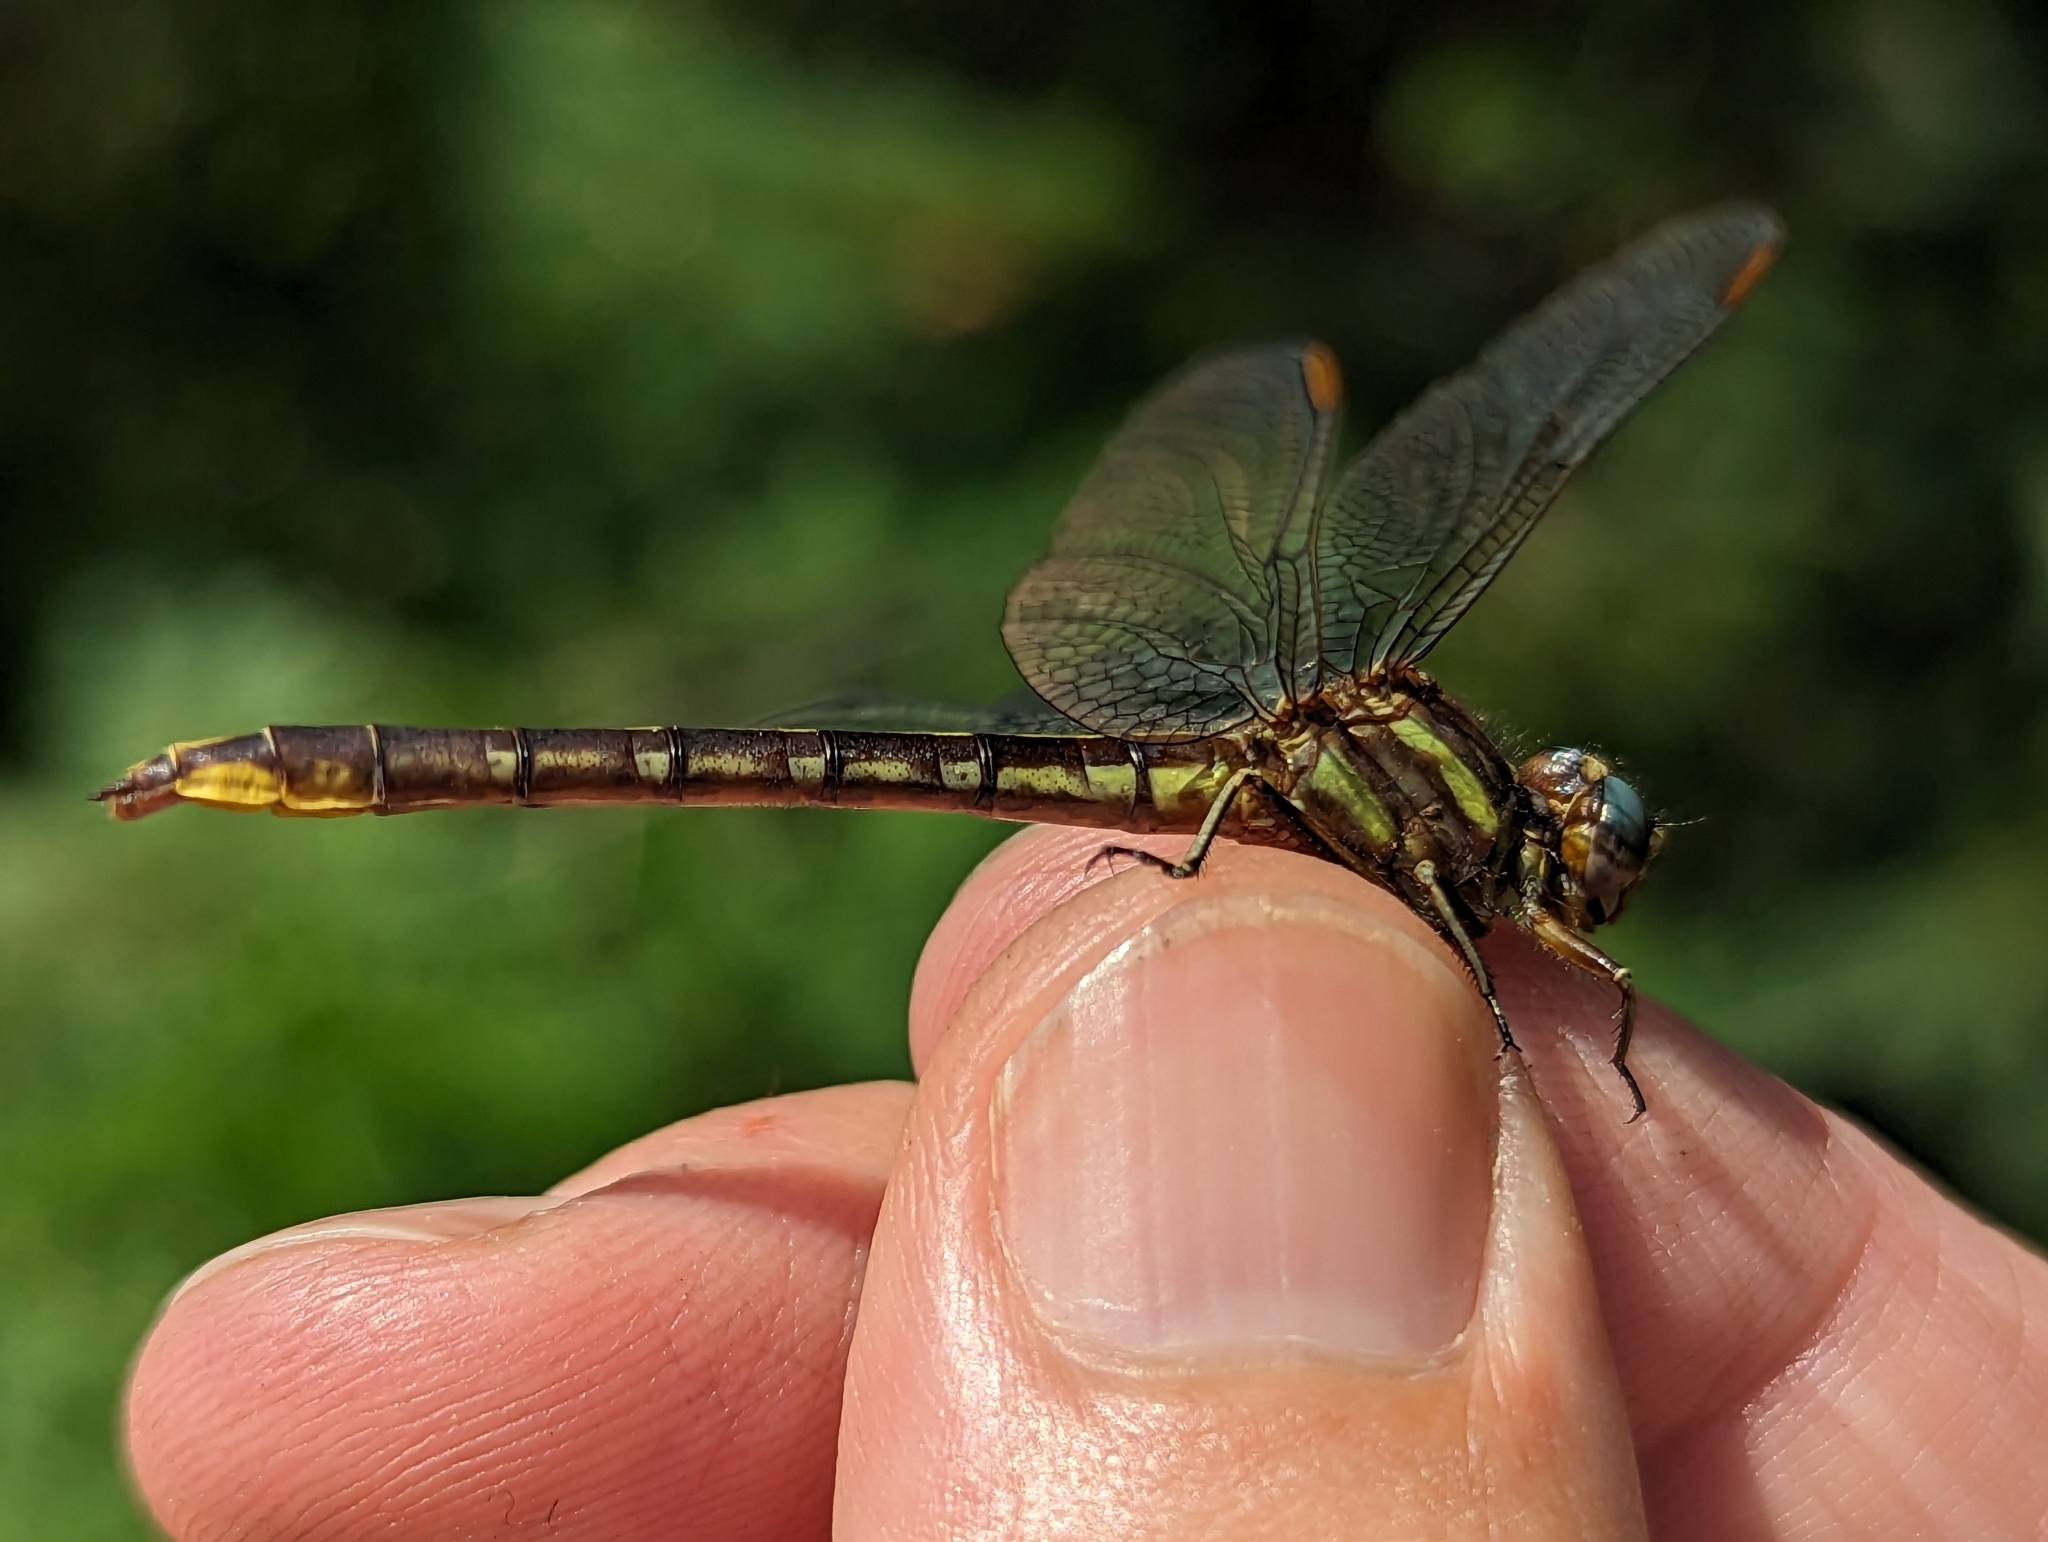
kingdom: Animalia
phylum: Arthropoda
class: Insecta
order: Odonata
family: Gomphidae
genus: Phanogomphus
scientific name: Phanogomphus exilis
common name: Lancet clubtail
